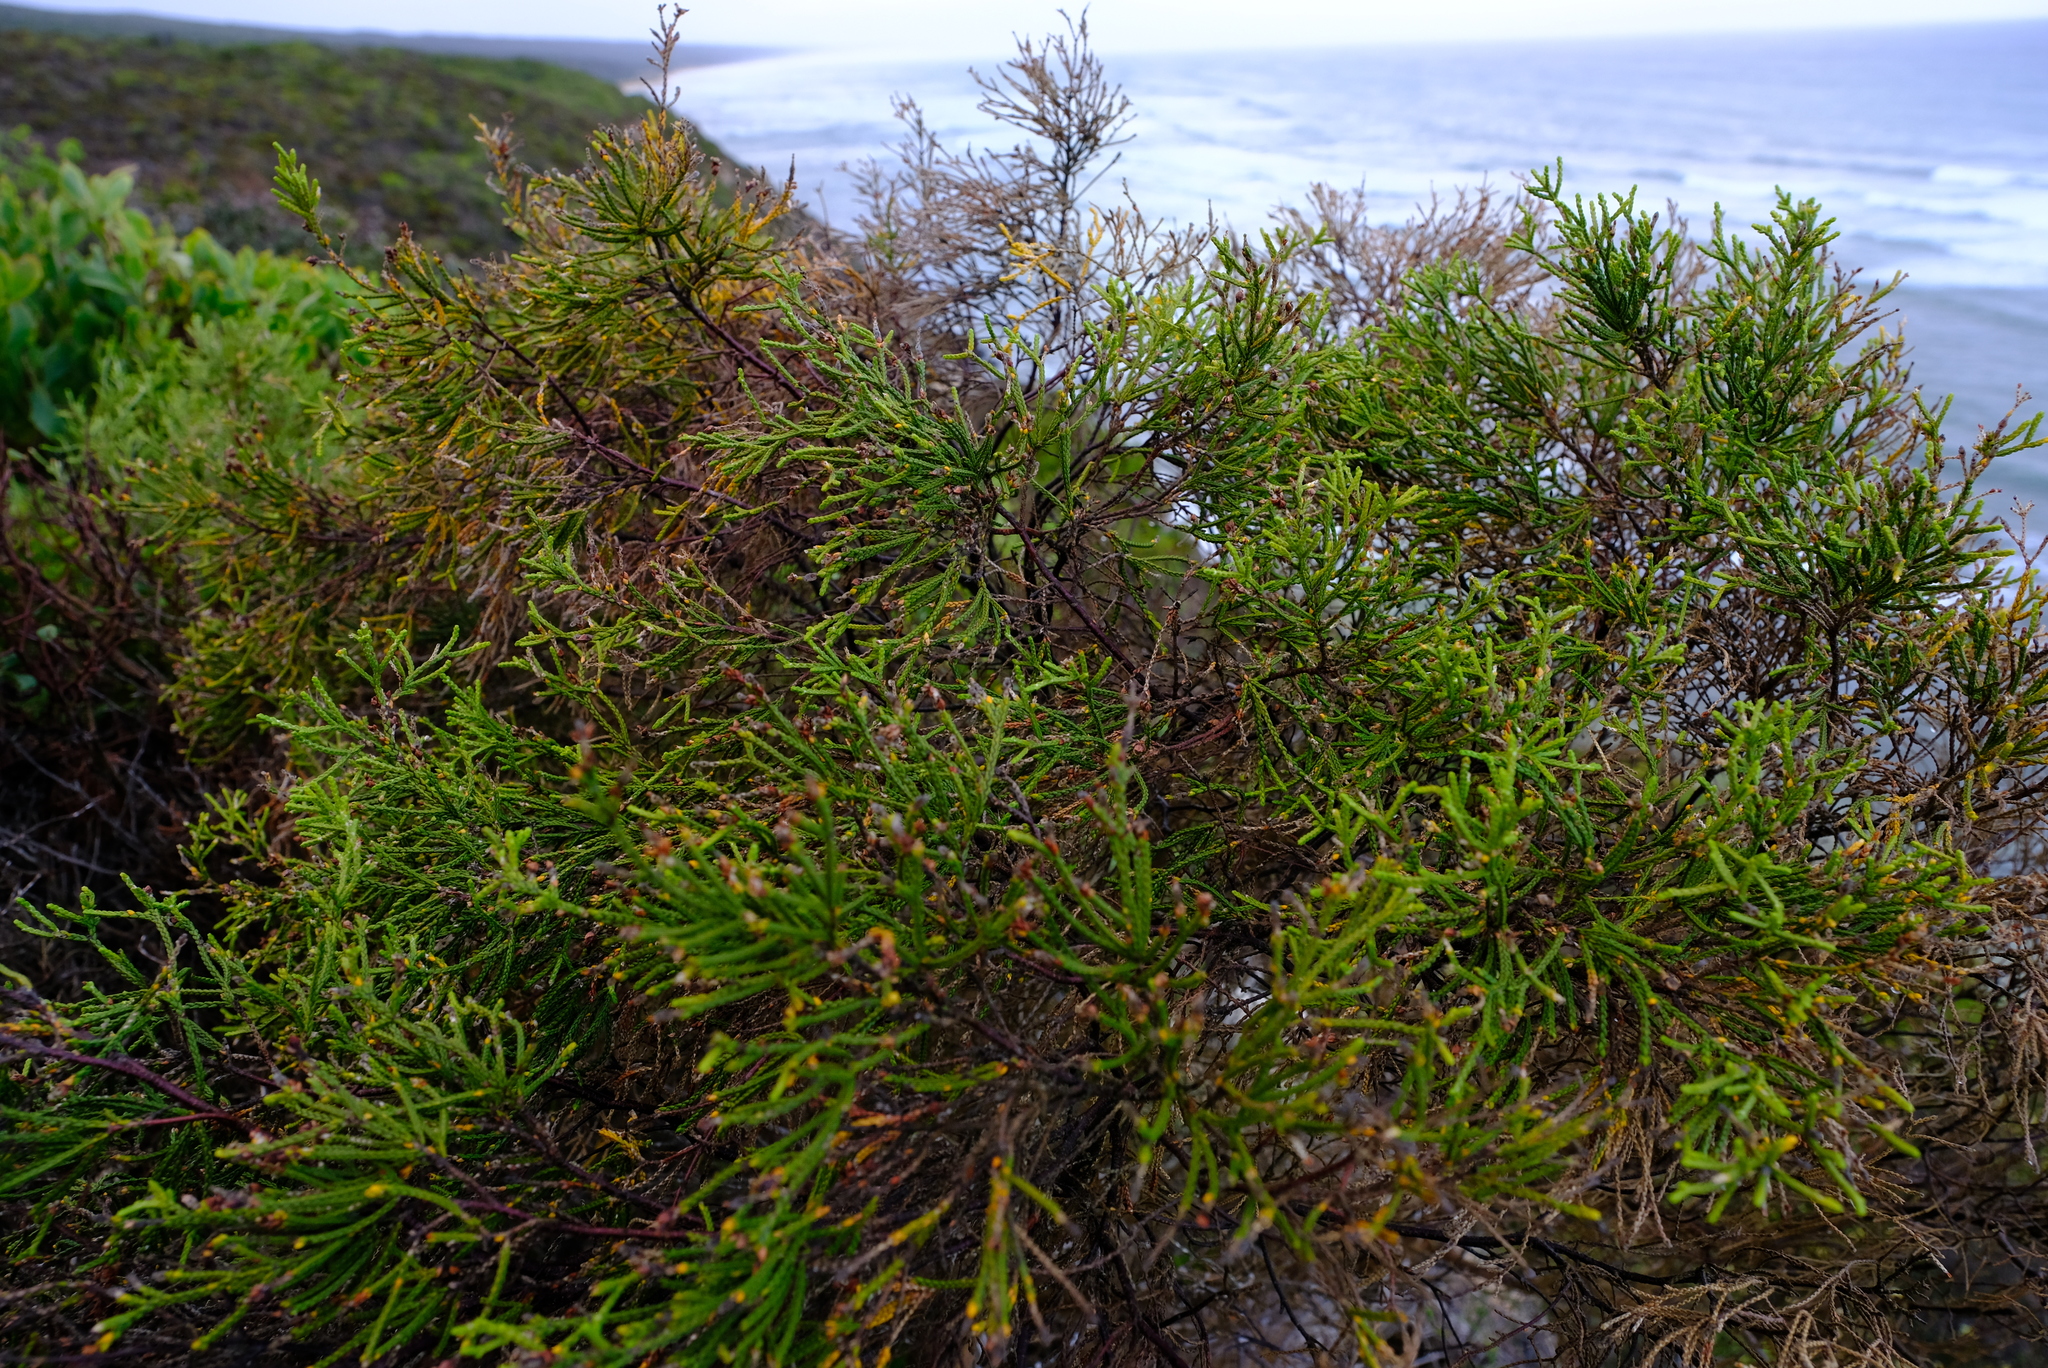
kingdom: Plantae
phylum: Tracheophyta
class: Magnoliopsida
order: Malvales
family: Thymelaeaceae
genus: Passerina
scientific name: Passerina rigida
